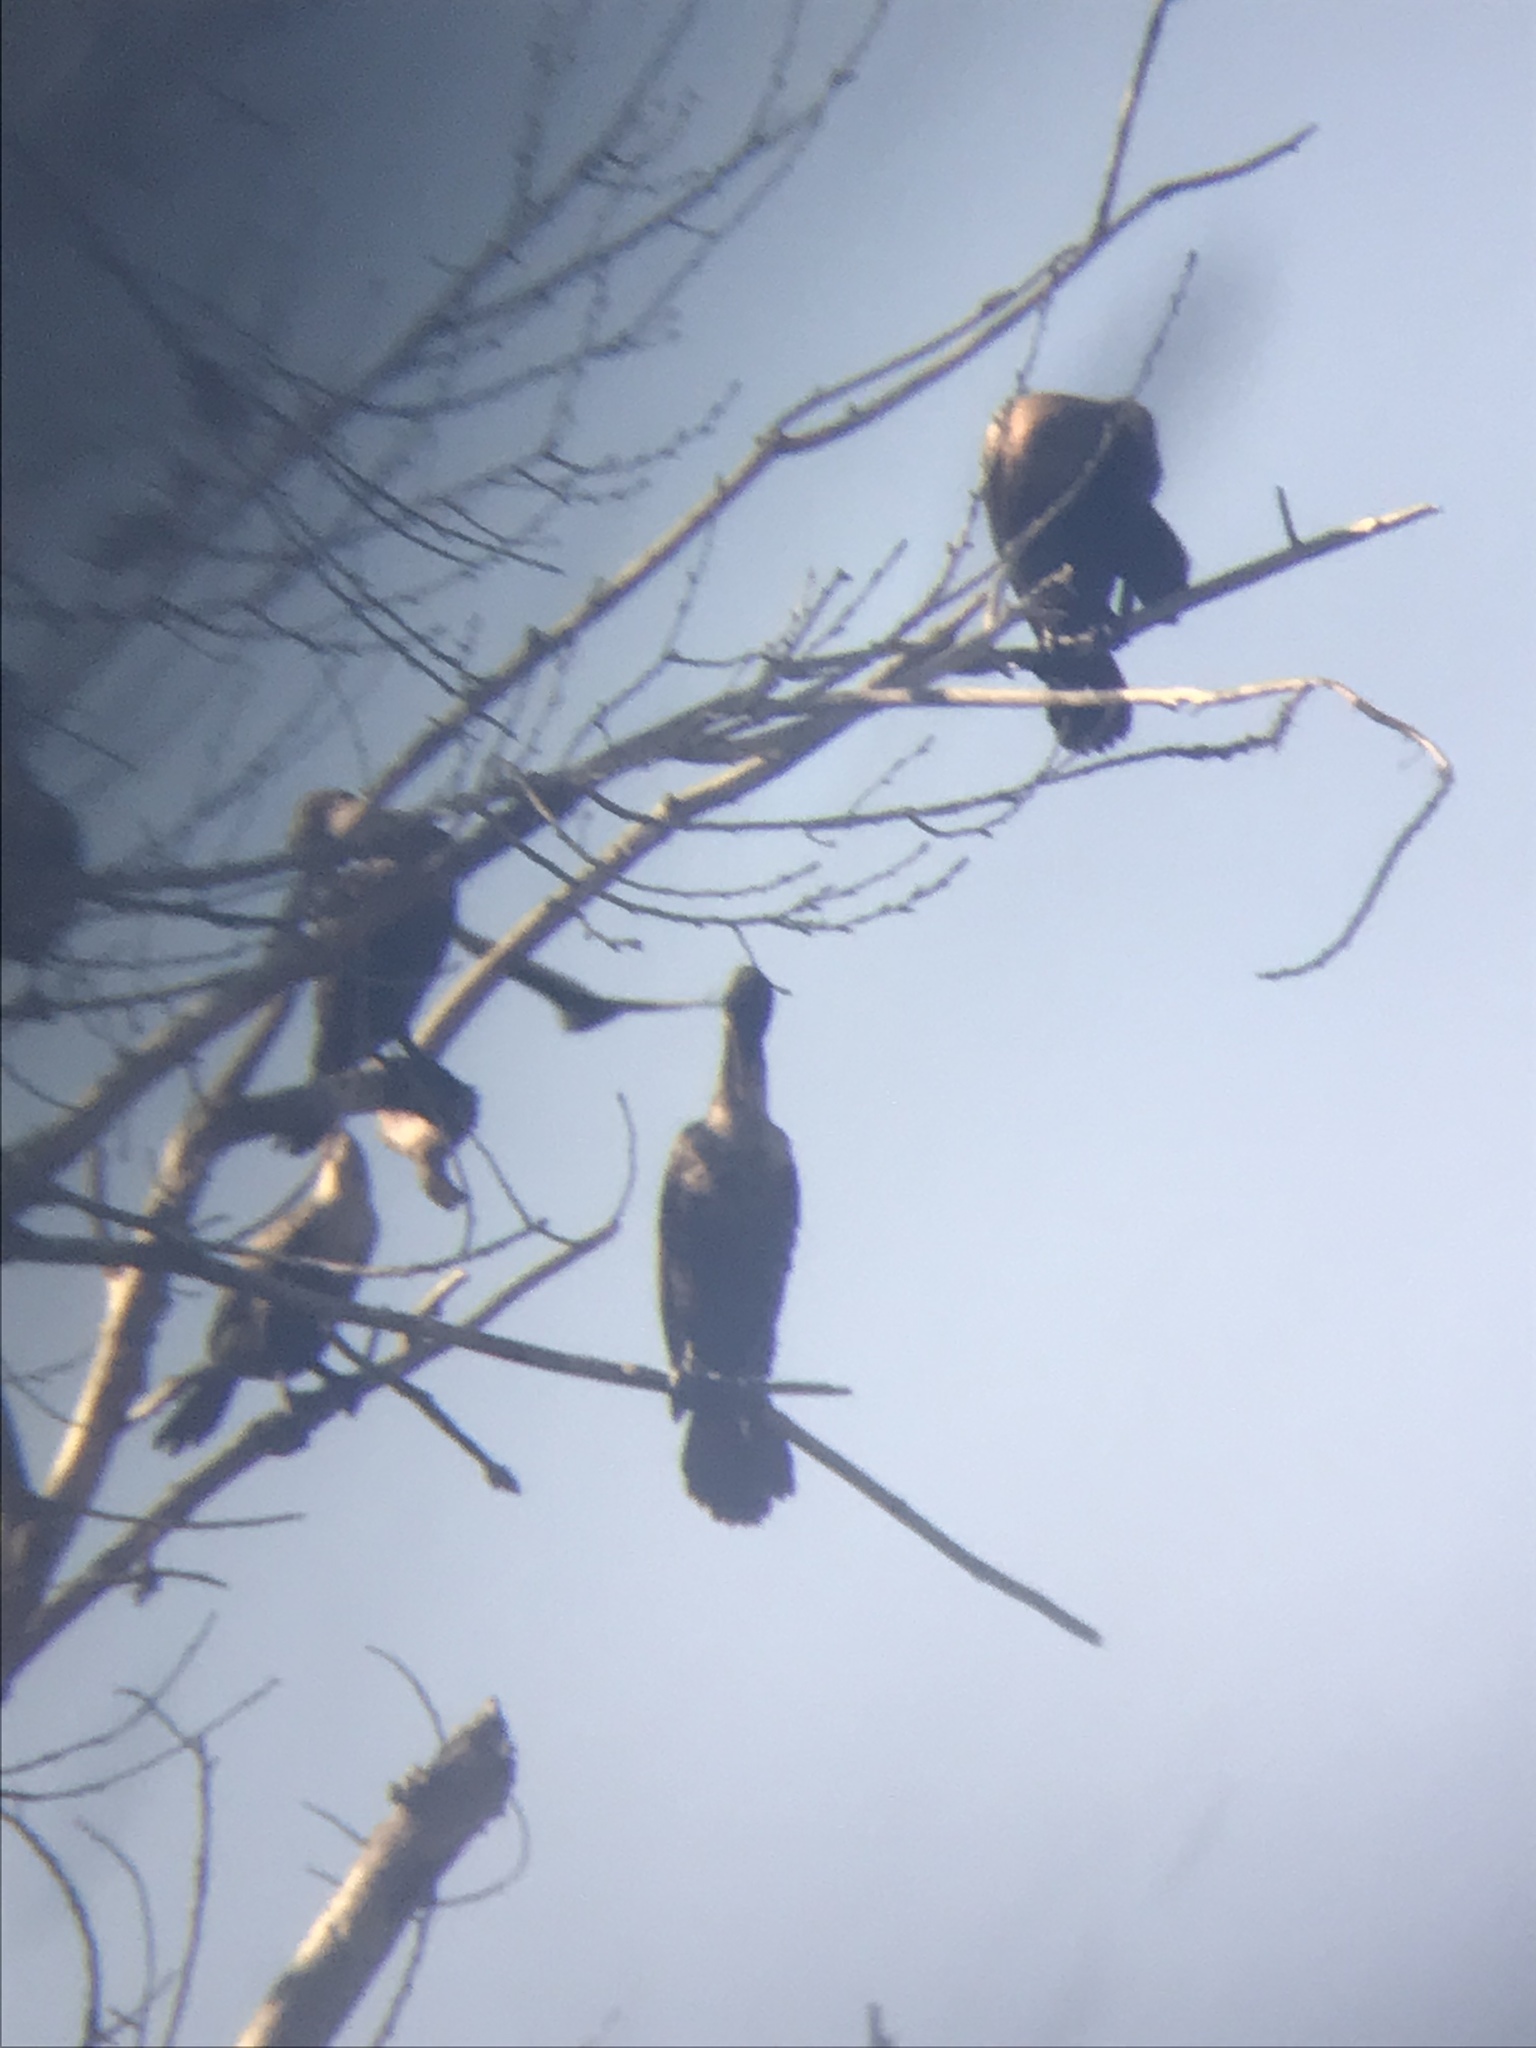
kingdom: Animalia
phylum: Chordata
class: Aves
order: Suliformes
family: Phalacrocoracidae
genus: Phalacrocorax
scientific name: Phalacrocorax auritus
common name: Double-crested cormorant
